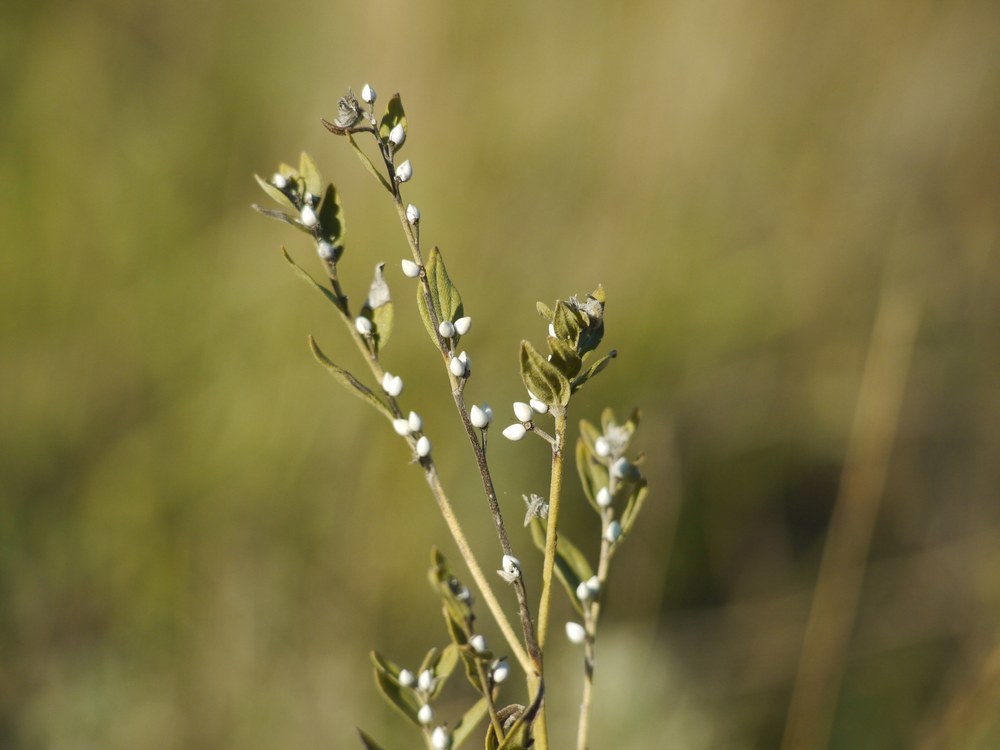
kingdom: Plantae
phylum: Tracheophyta
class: Magnoliopsida
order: Boraginales
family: Boraginaceae
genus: Lithospermum
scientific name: Lithospermum officinale
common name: Common gromwell
